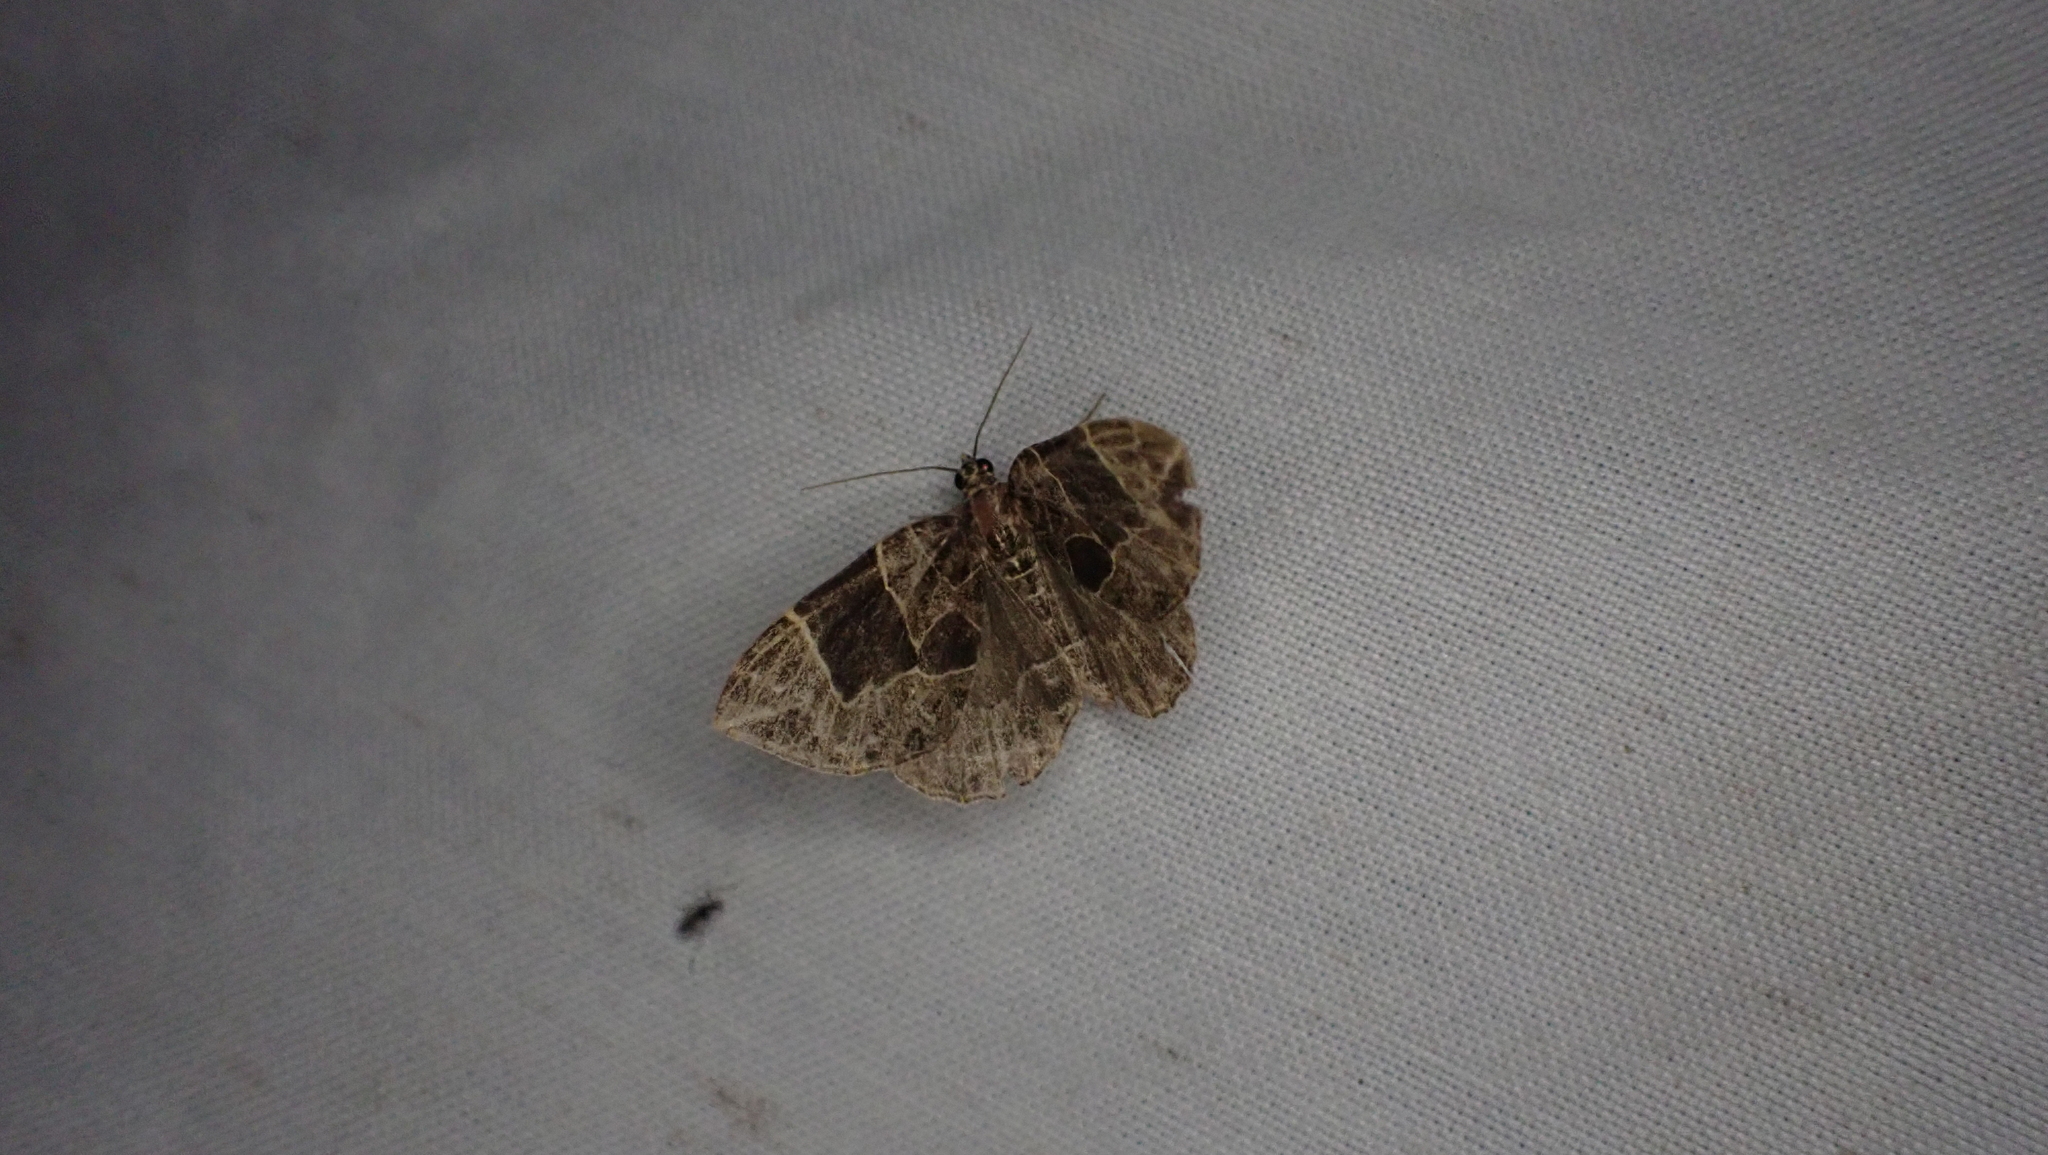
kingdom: Animalia
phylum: Arthropoda
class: Insecta
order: Lepidoptera
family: Geometridae
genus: Ecliptopera
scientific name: Ecliptopera atricolorata
